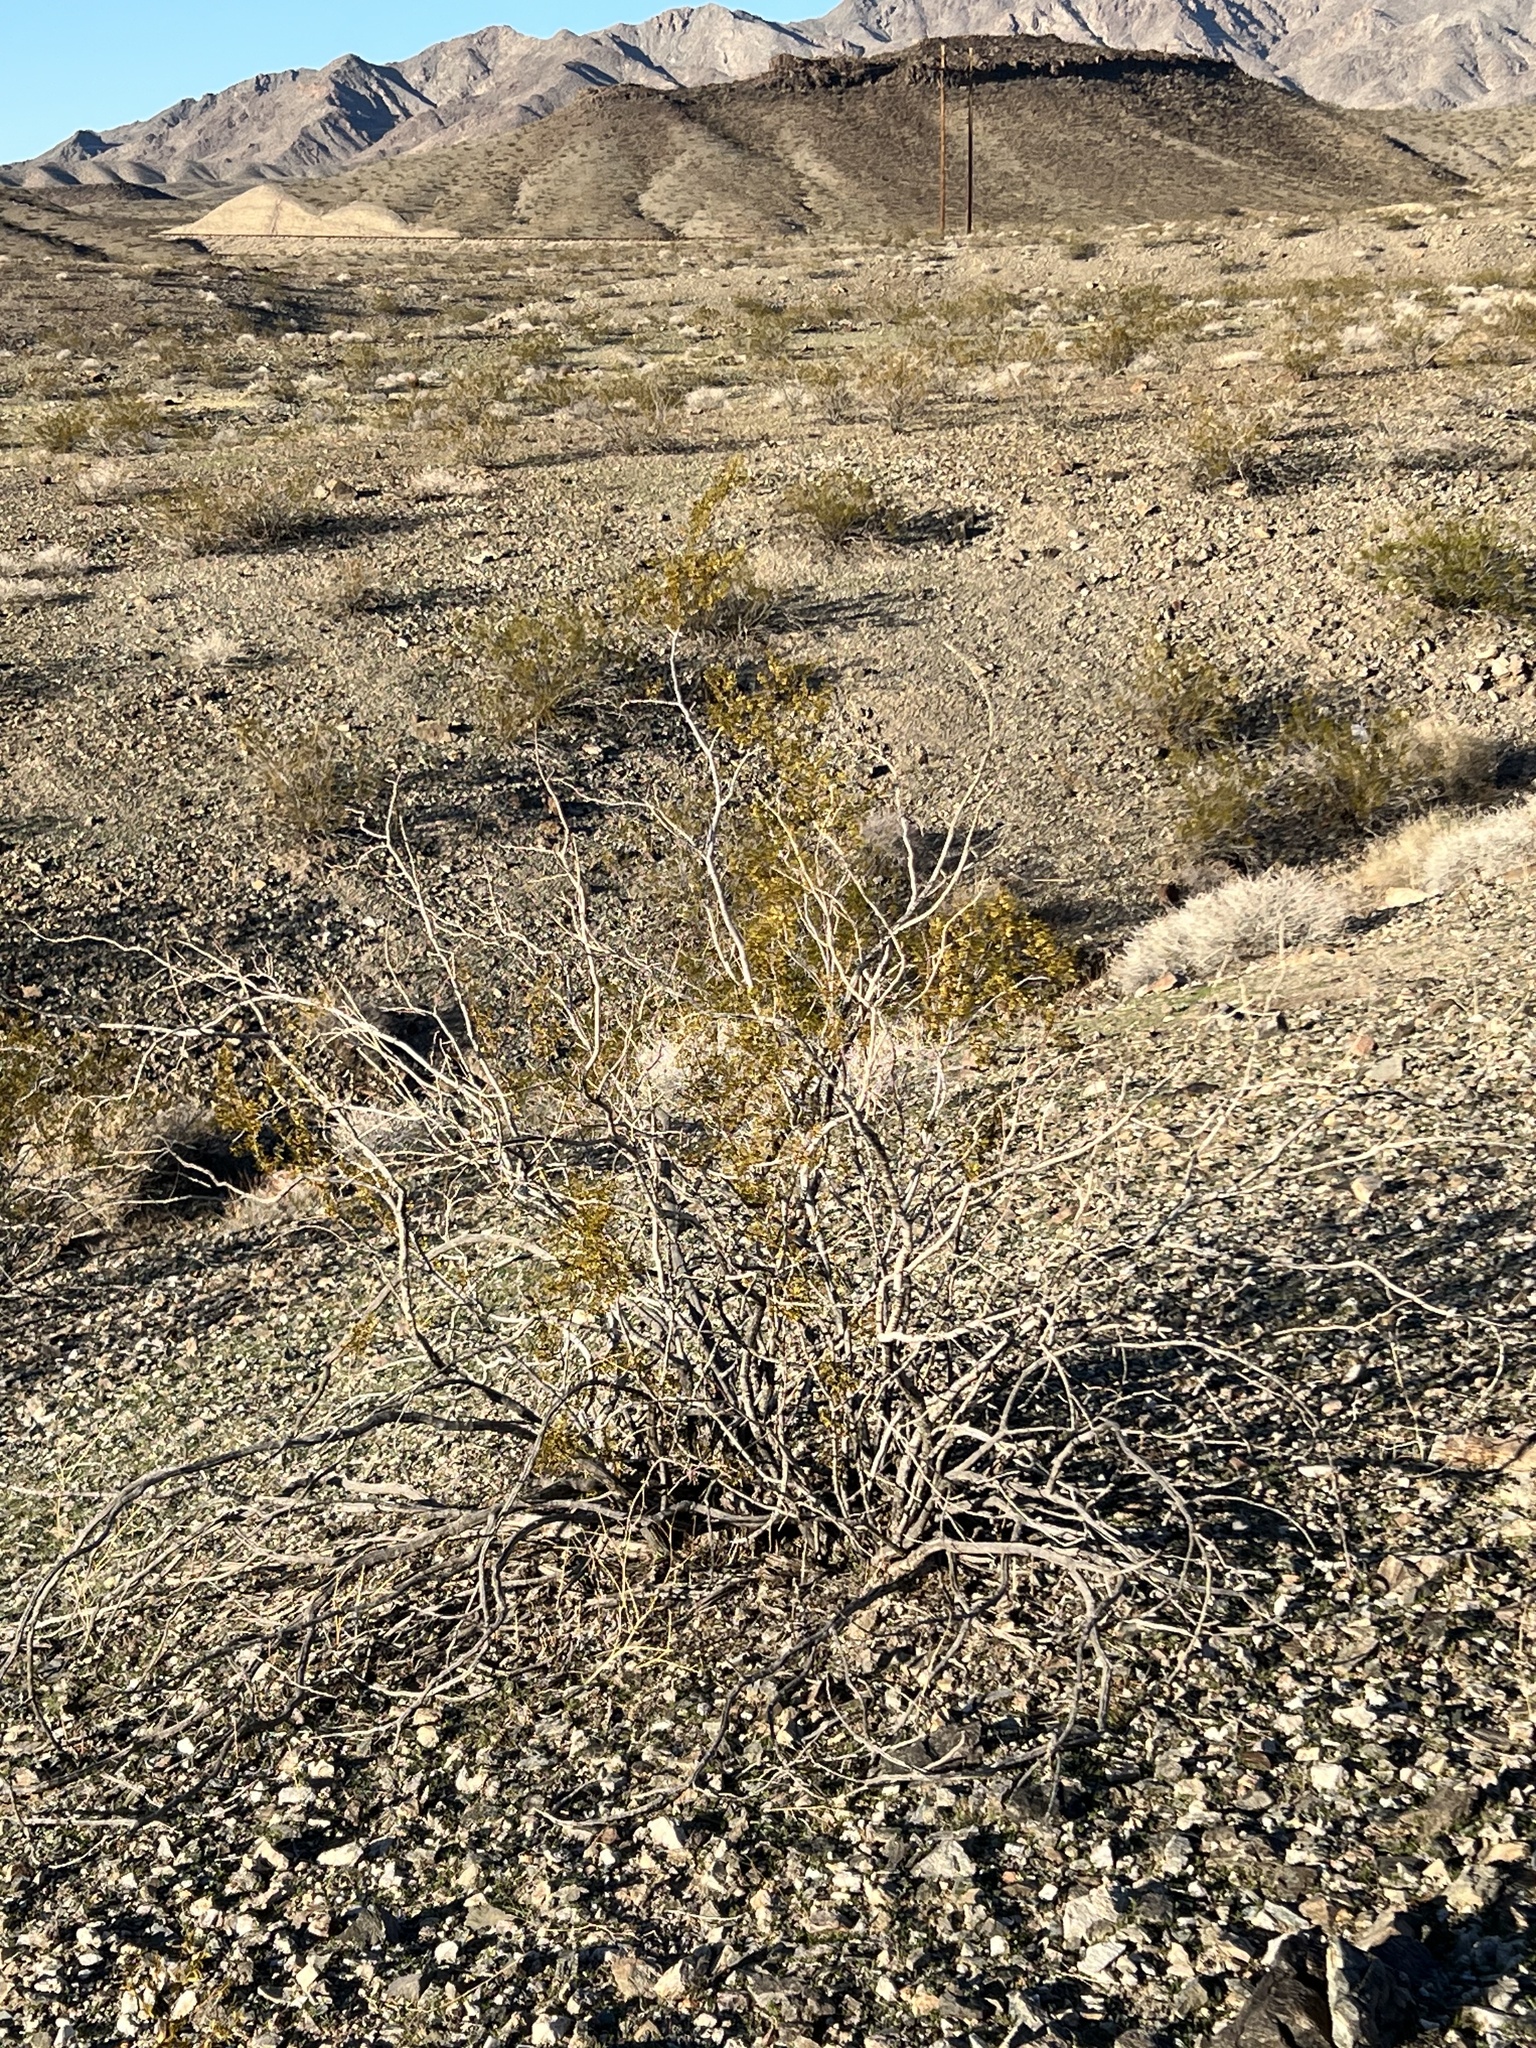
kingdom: Plantae
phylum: Tracheophyta
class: Magnoliopsida
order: Zygophyllales
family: Zygophyllaceae
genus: Larrea
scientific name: Larrea tridentata
